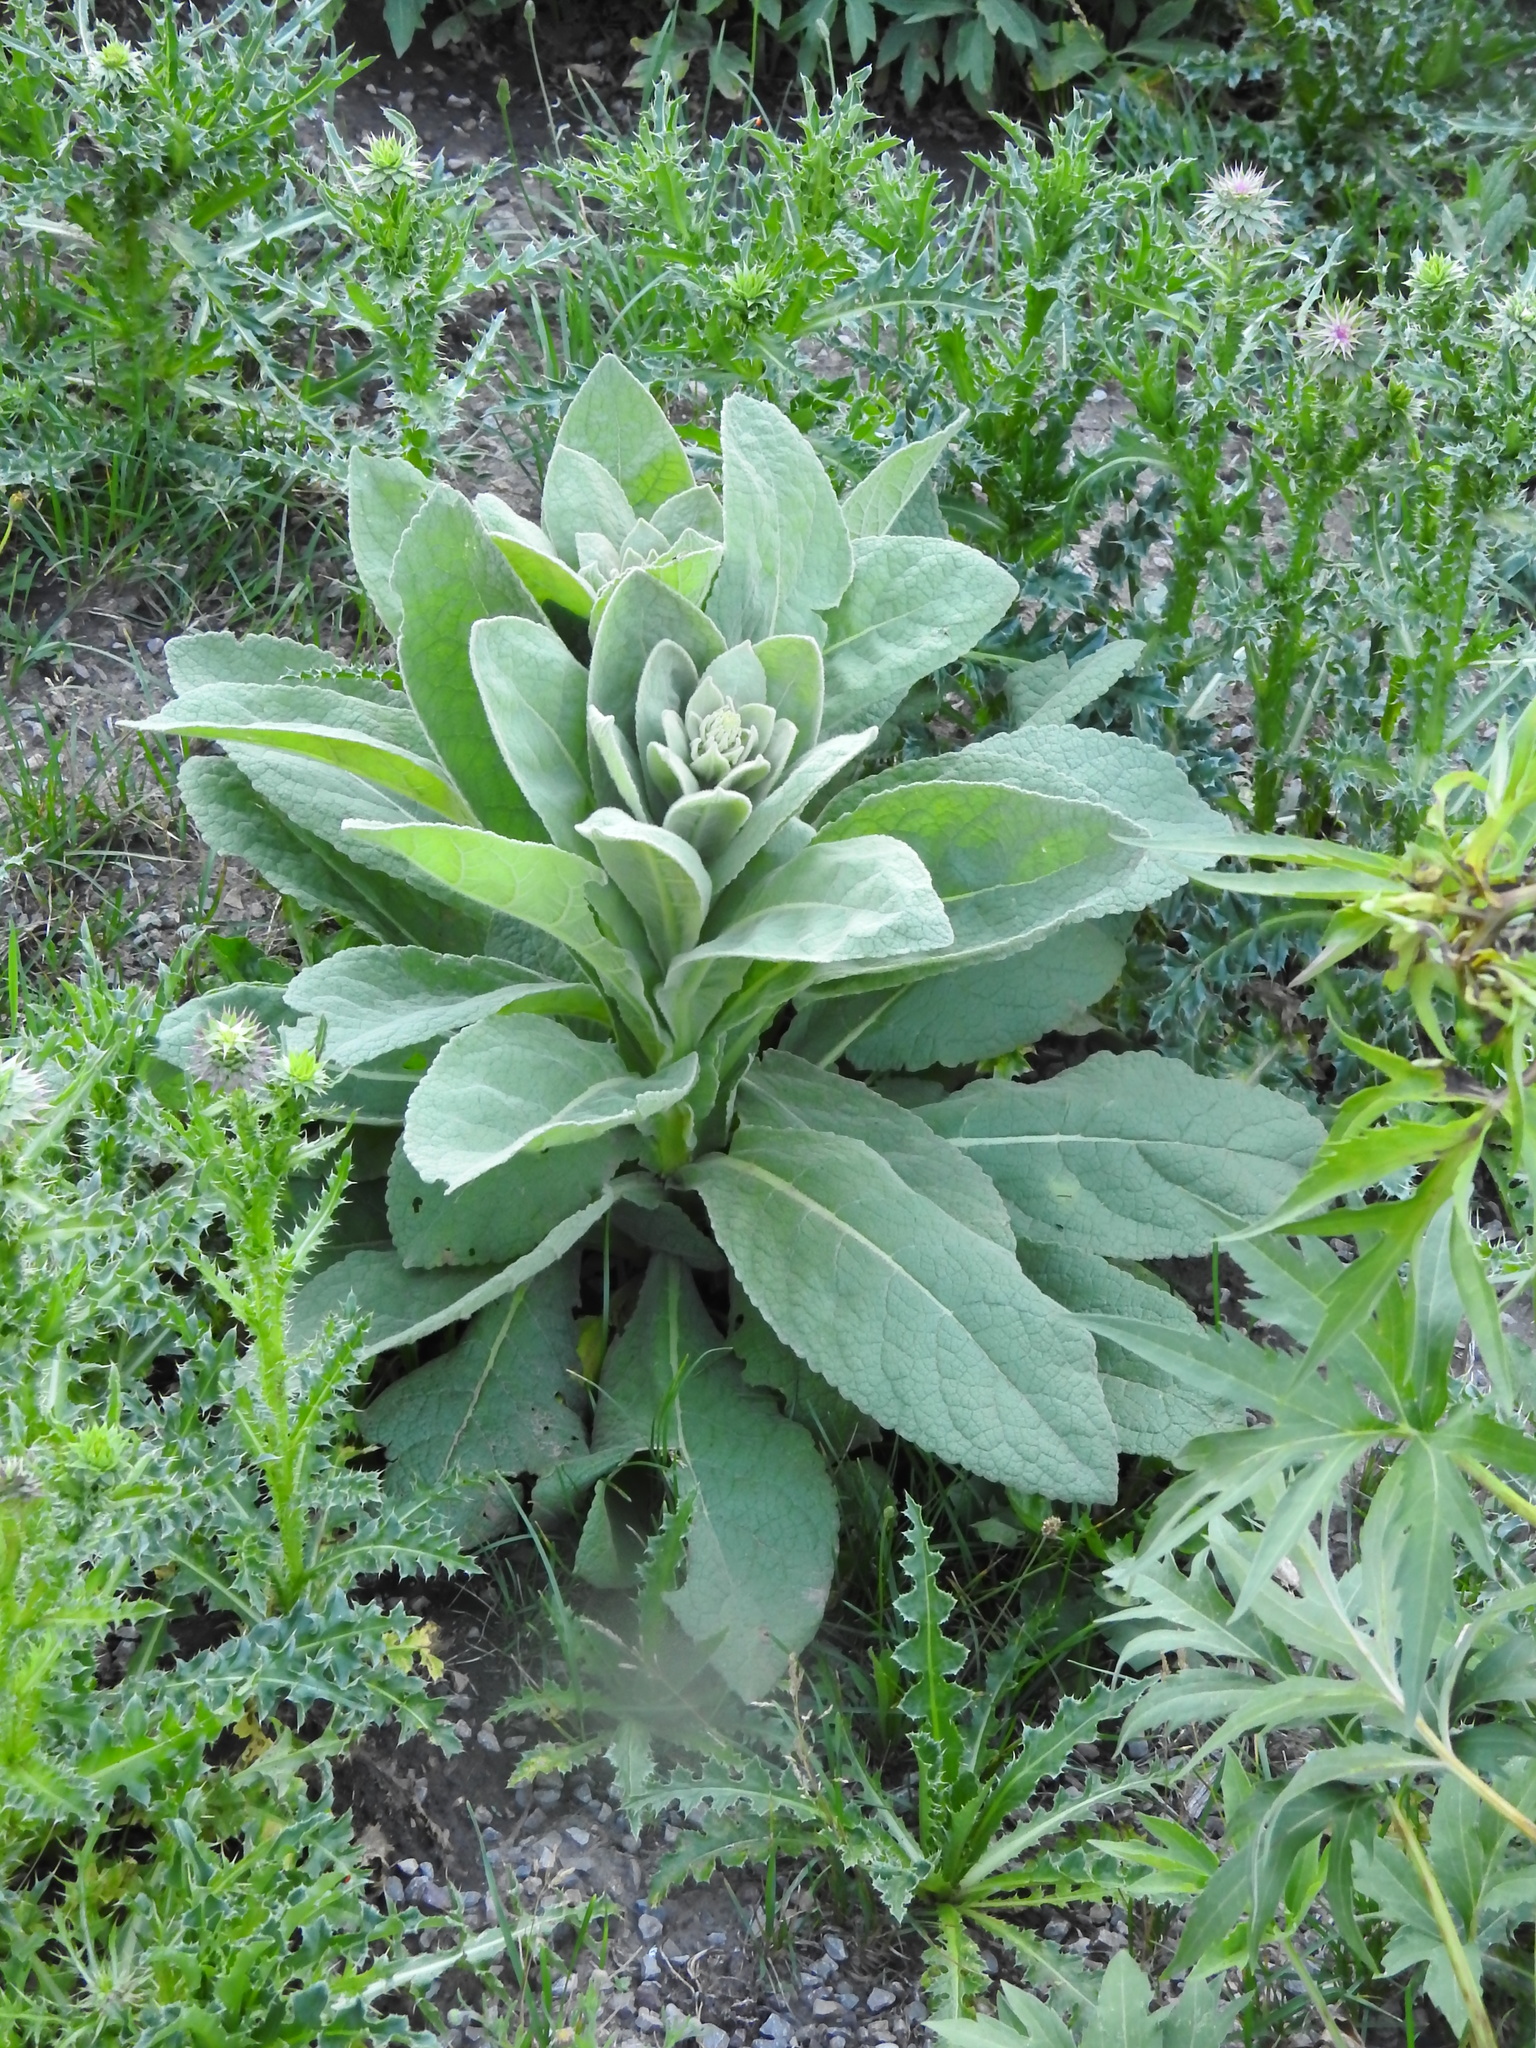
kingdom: Plantae
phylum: Tracheophyta
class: Magnoliopsida
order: Lamiales
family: Scrophulariaceae
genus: Verbascum
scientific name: Verbascum thapsus
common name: Common mullein
